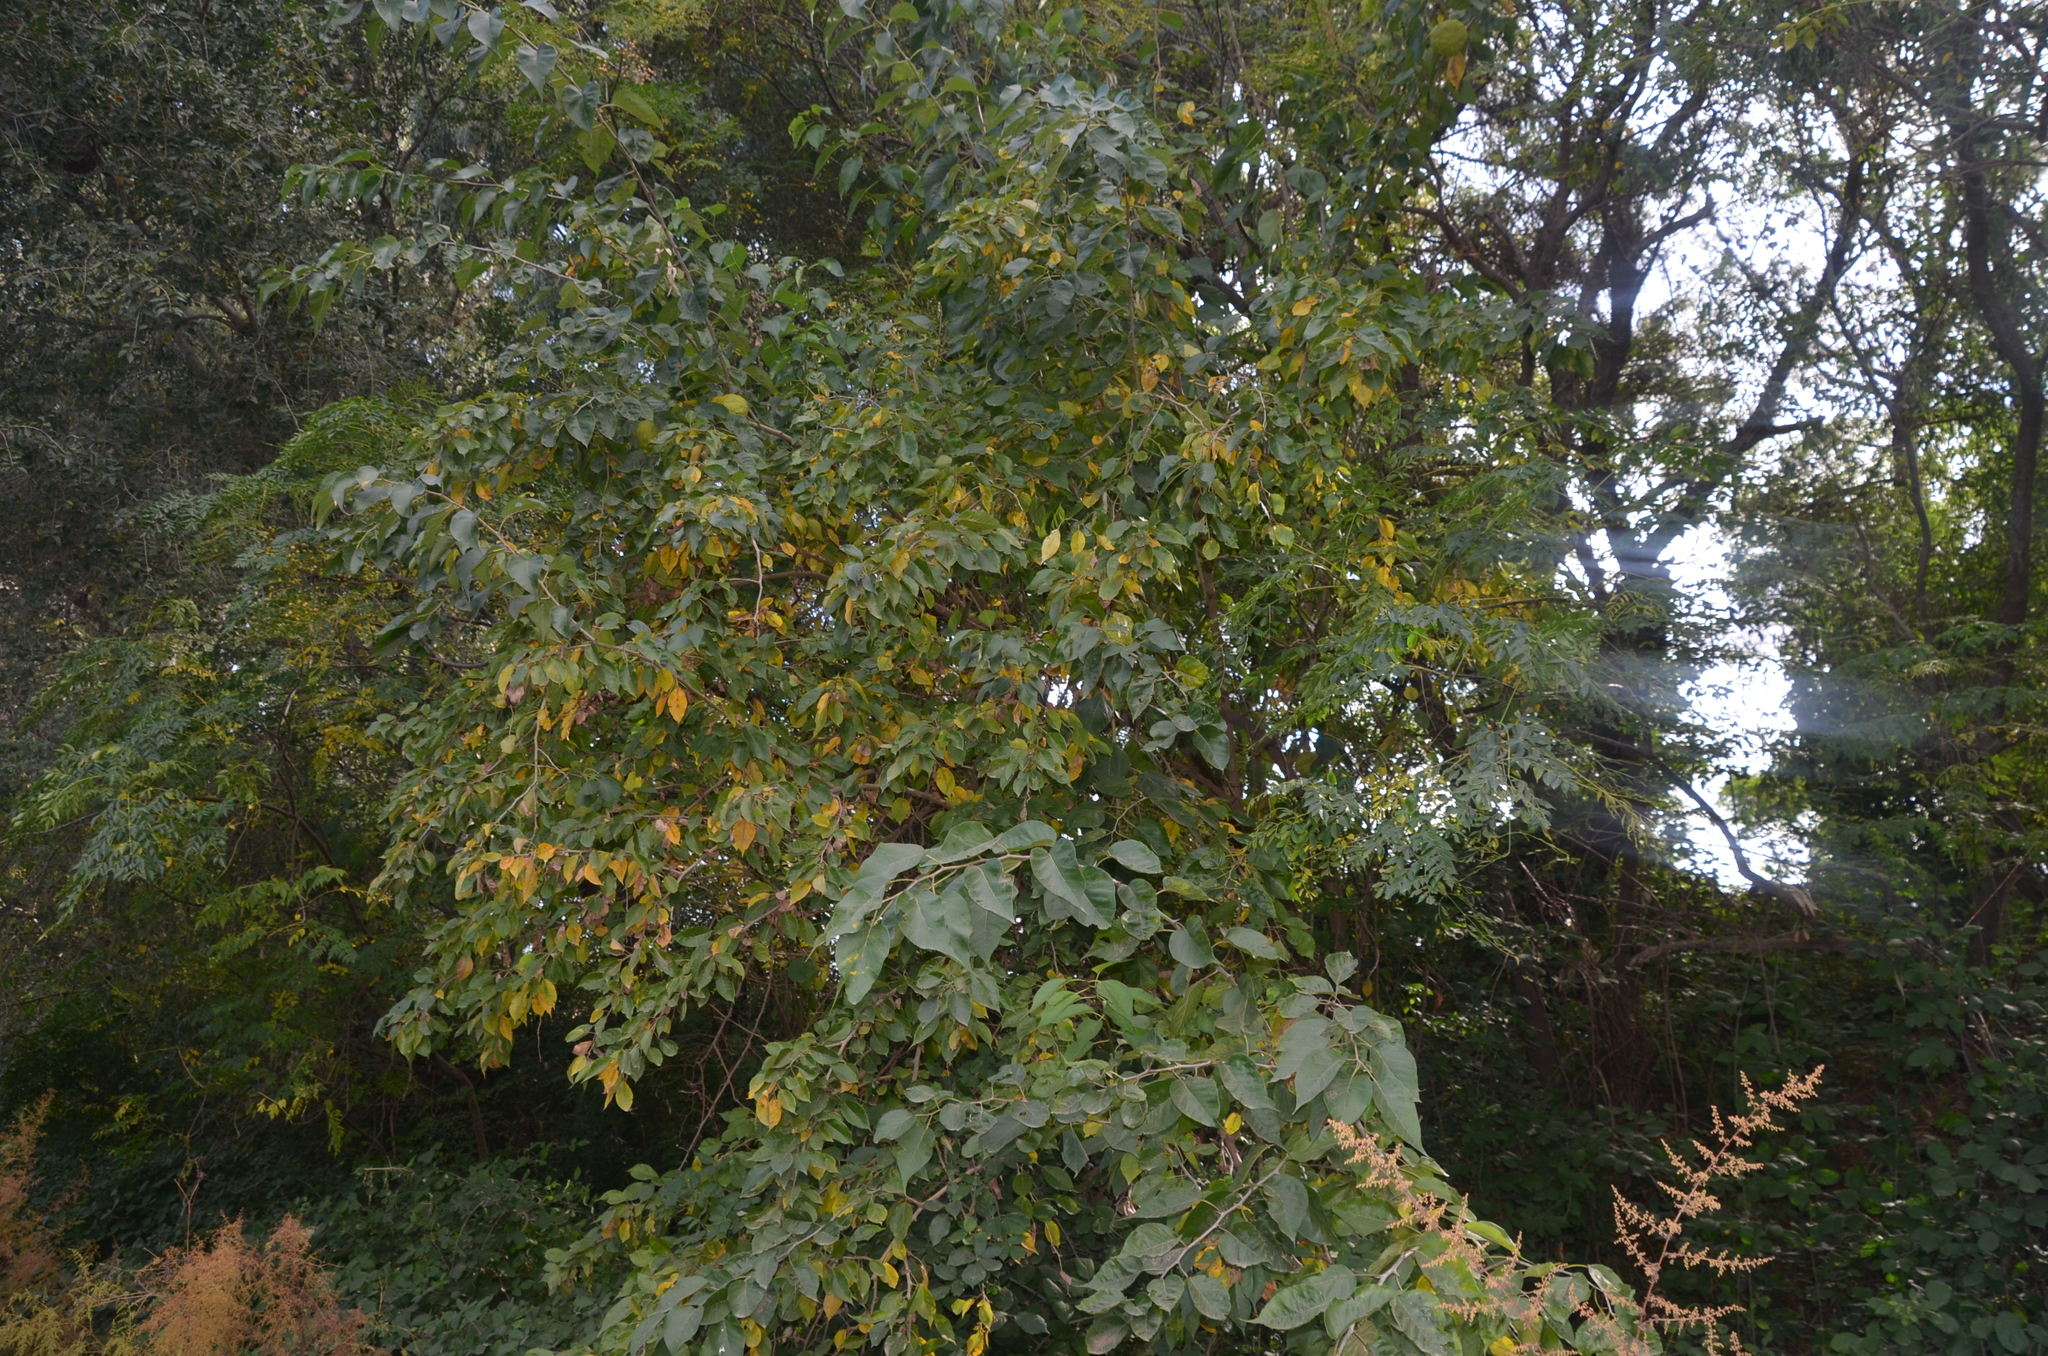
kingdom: Plantae
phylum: Tracheophyta
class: Magnoliopsida
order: Rosales
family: Moraceae
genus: Maclura
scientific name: Maclura pomifera
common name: Osage-orange
